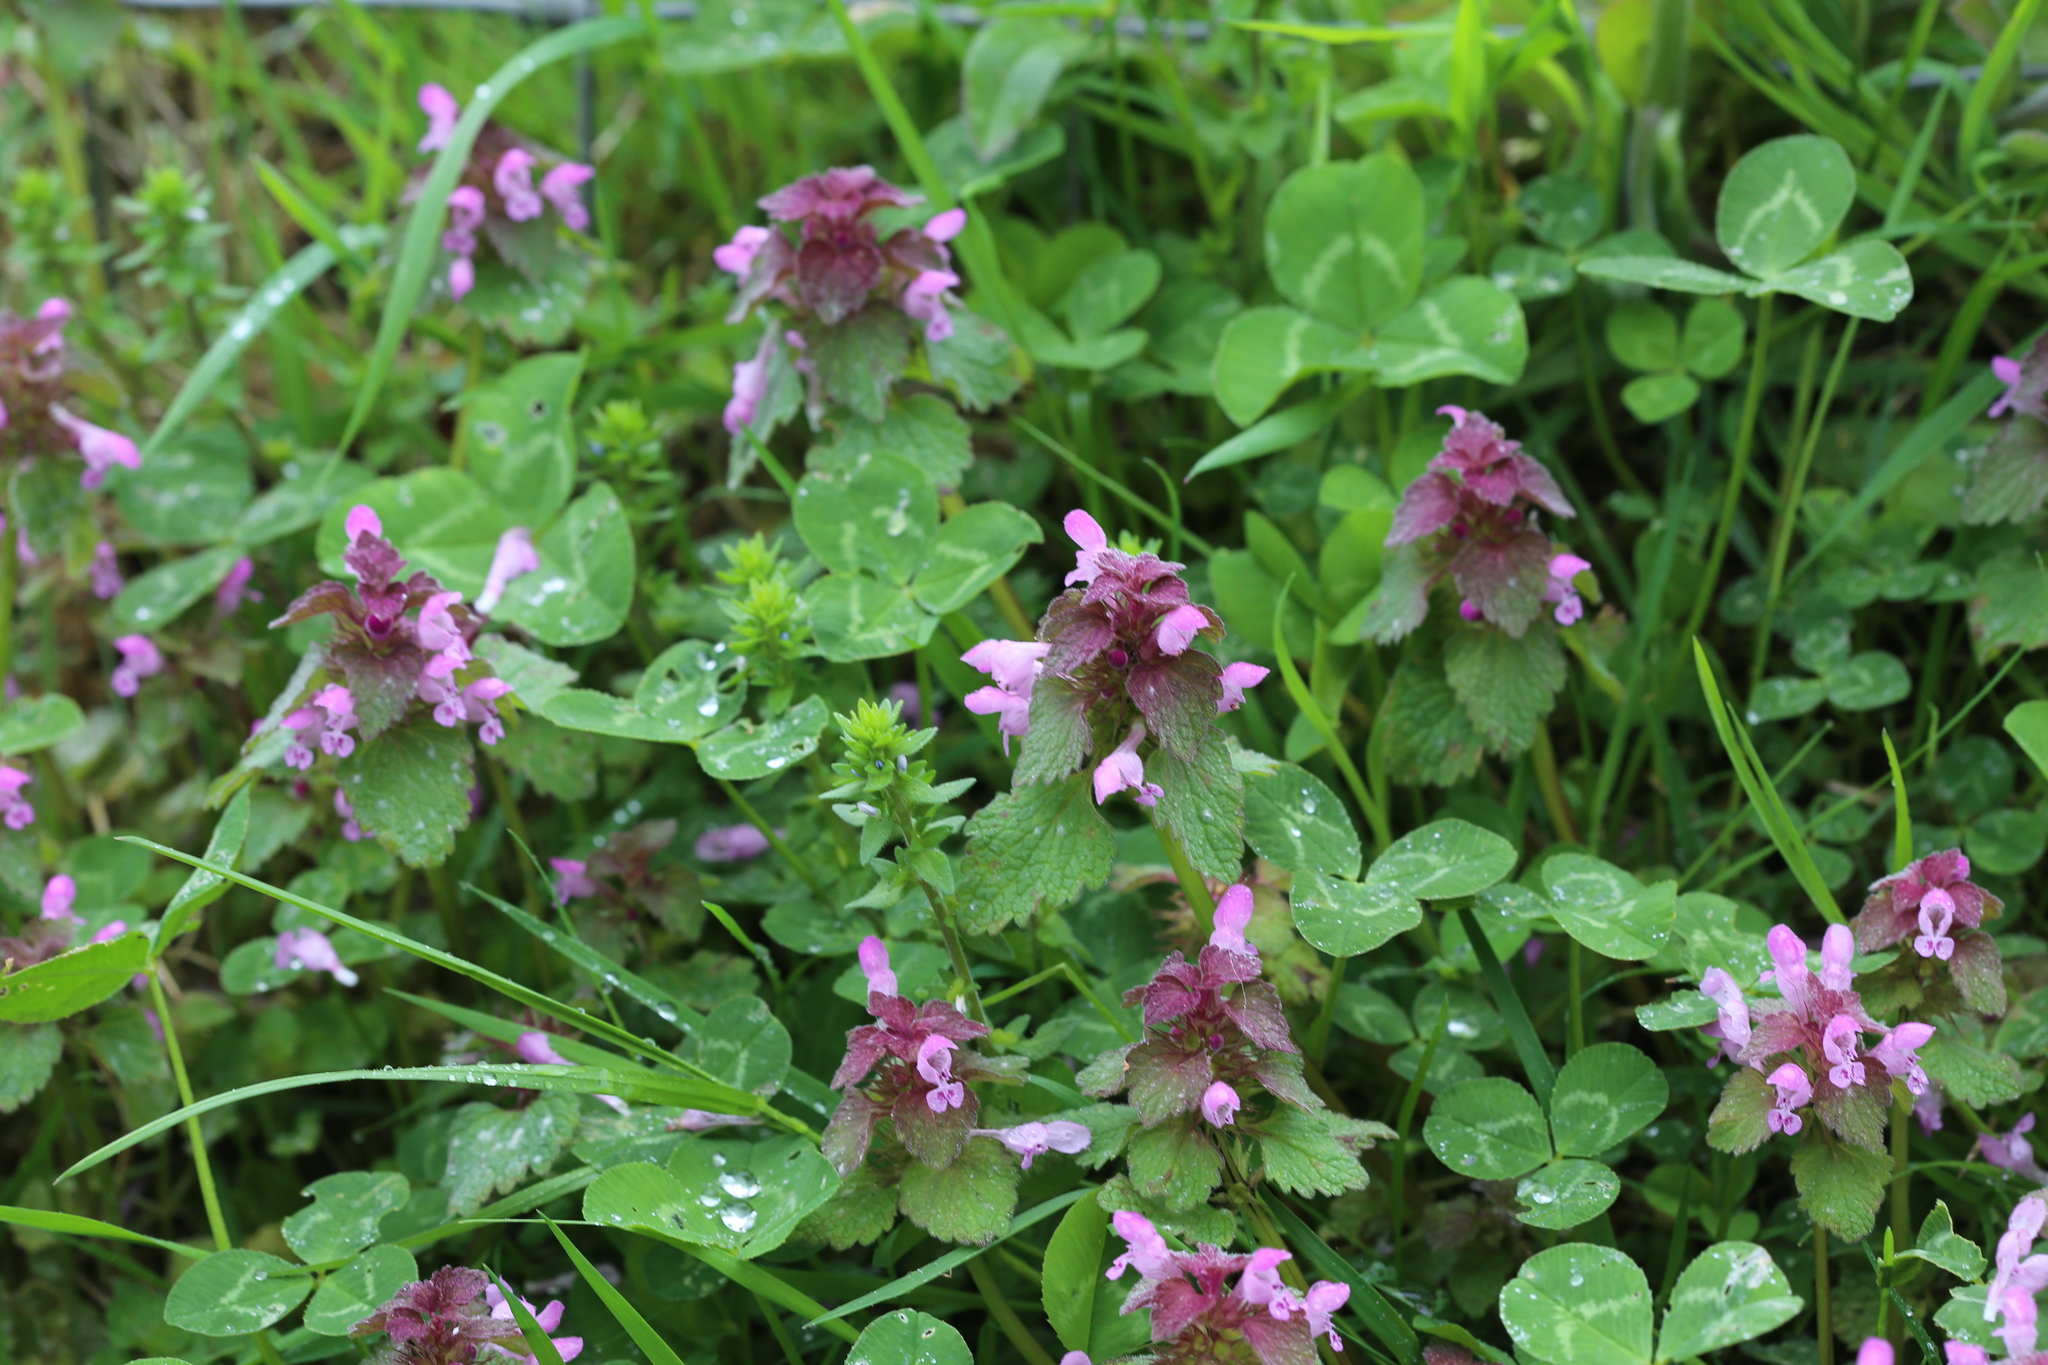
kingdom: Plantae
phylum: Tracheophyta
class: Magnoliopsida
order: Lamiales
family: Lamiaceae
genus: Lamium
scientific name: Lamium purpureum
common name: Red dead-nettle
